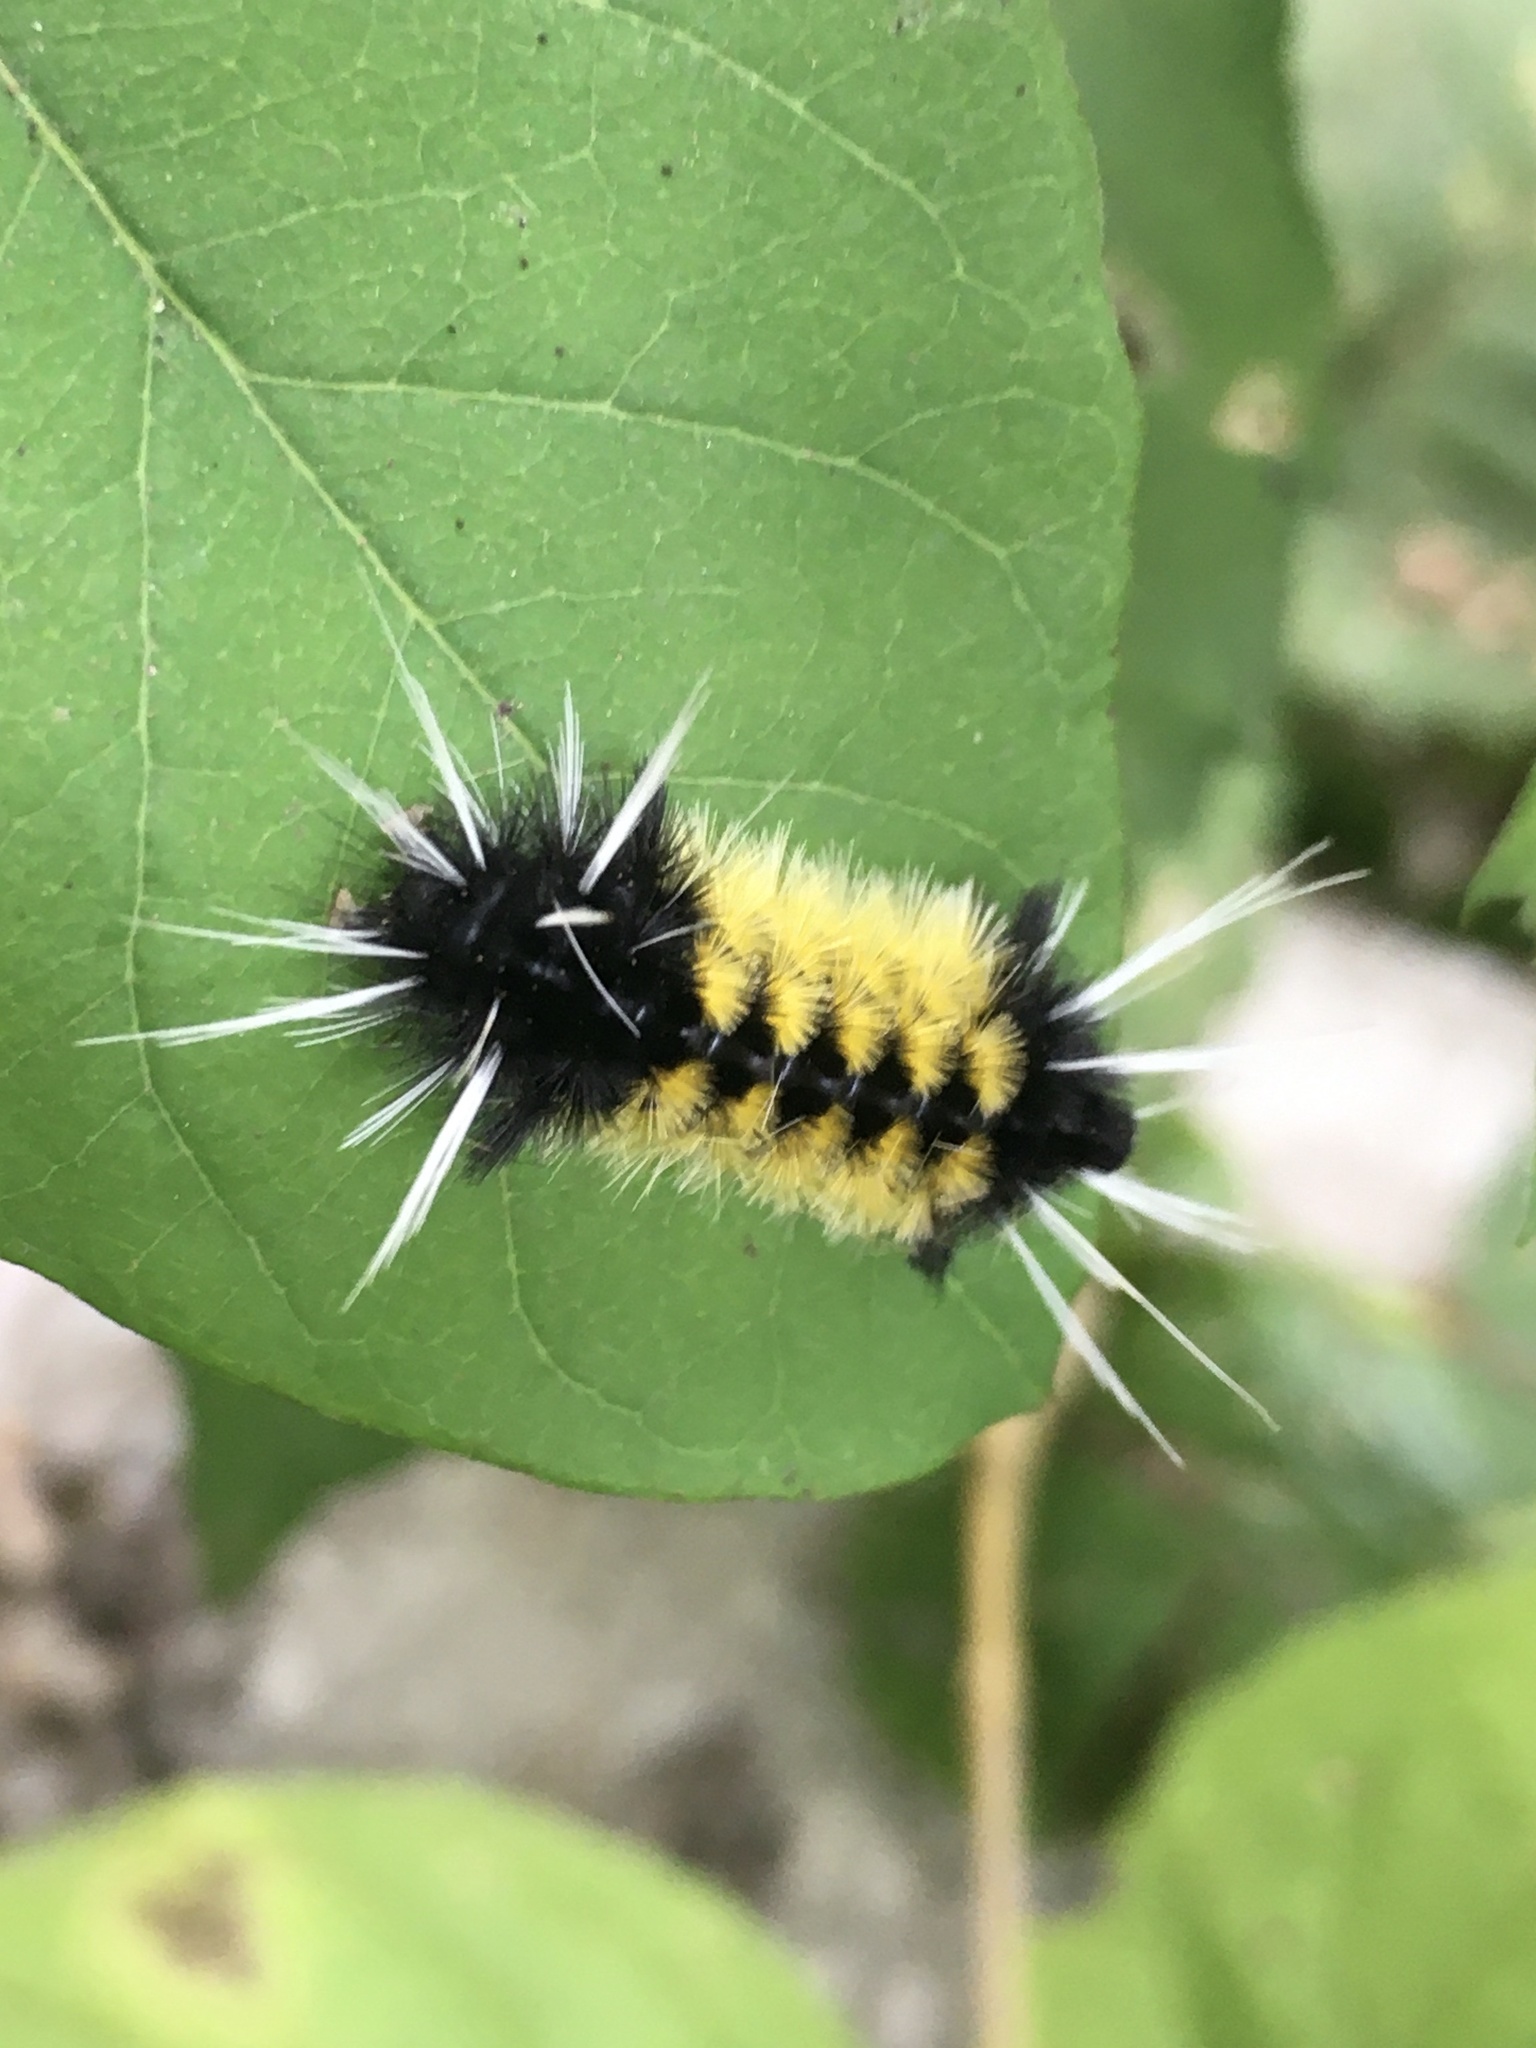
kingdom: Animalia
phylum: Arthropoda
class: Insecta
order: Lepidoptera
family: Erebidae
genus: Lophocampa
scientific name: Lophocampa maculata
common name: Spotted tussock moth
